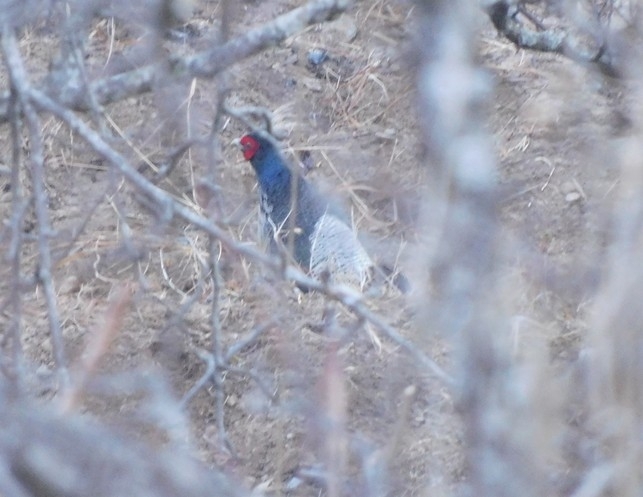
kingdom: Animalia
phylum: Chordata
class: Aves
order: Galliformes
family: Phasianidae
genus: Lophura
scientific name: Lophura leucomelanos
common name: Kalij pheasant
